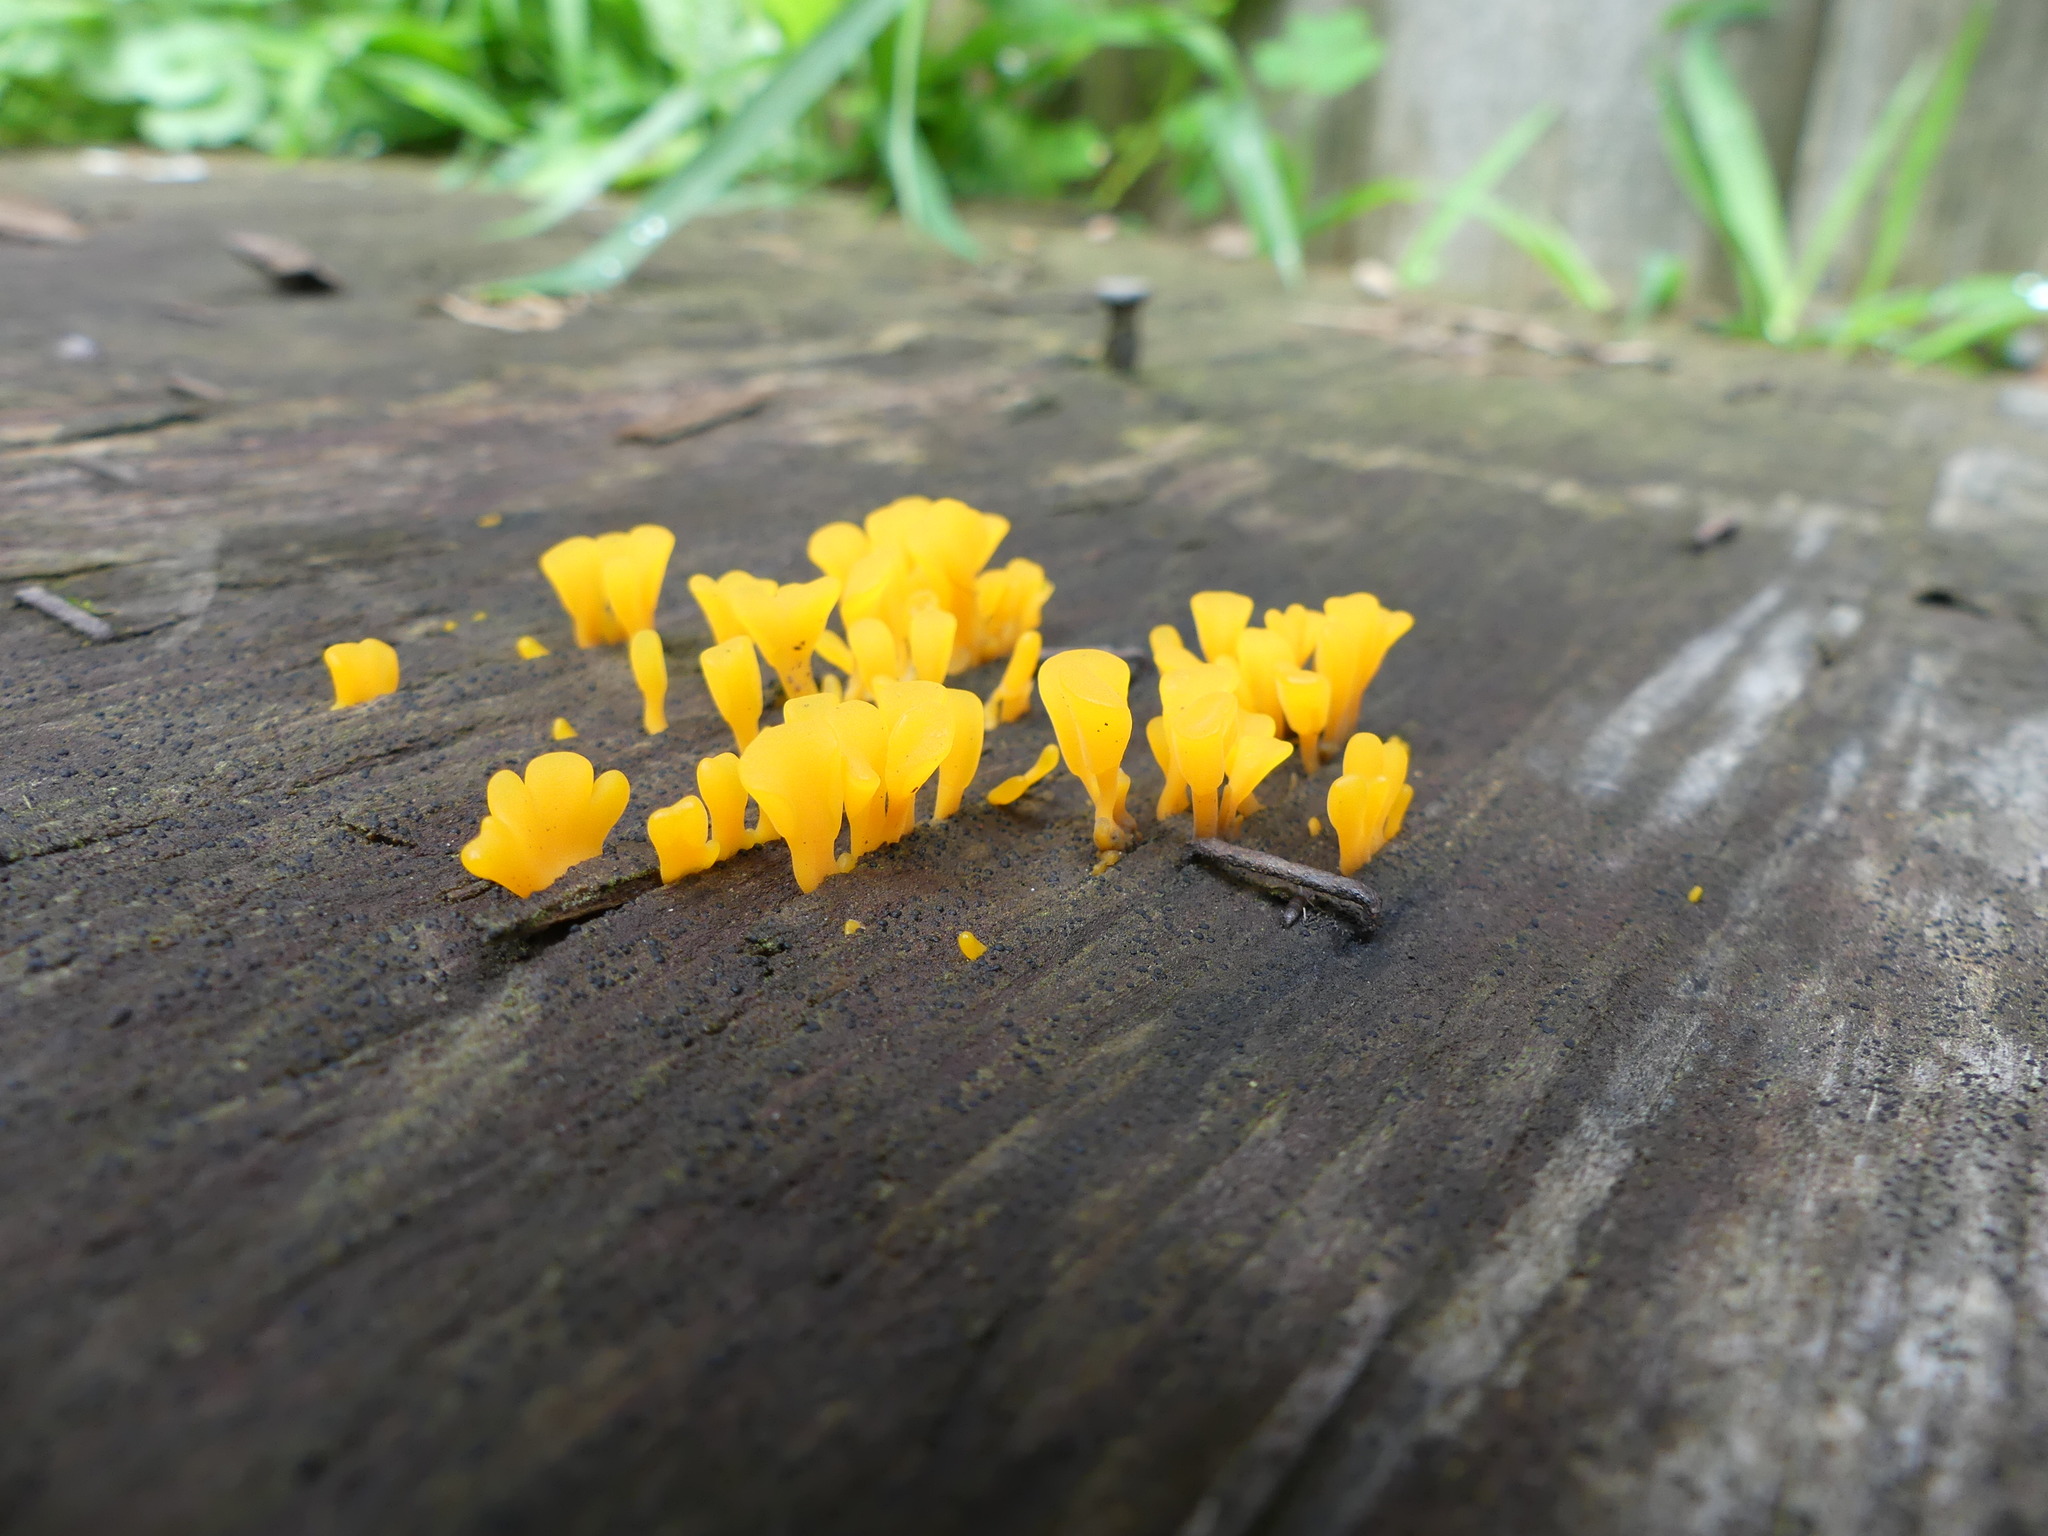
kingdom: Fungi
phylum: Basidiomycota
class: Dacrymycetes
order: Dacrymycetales
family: Dacrymycetaceae
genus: Dacrymyces
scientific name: Dacrymyces spathularius
